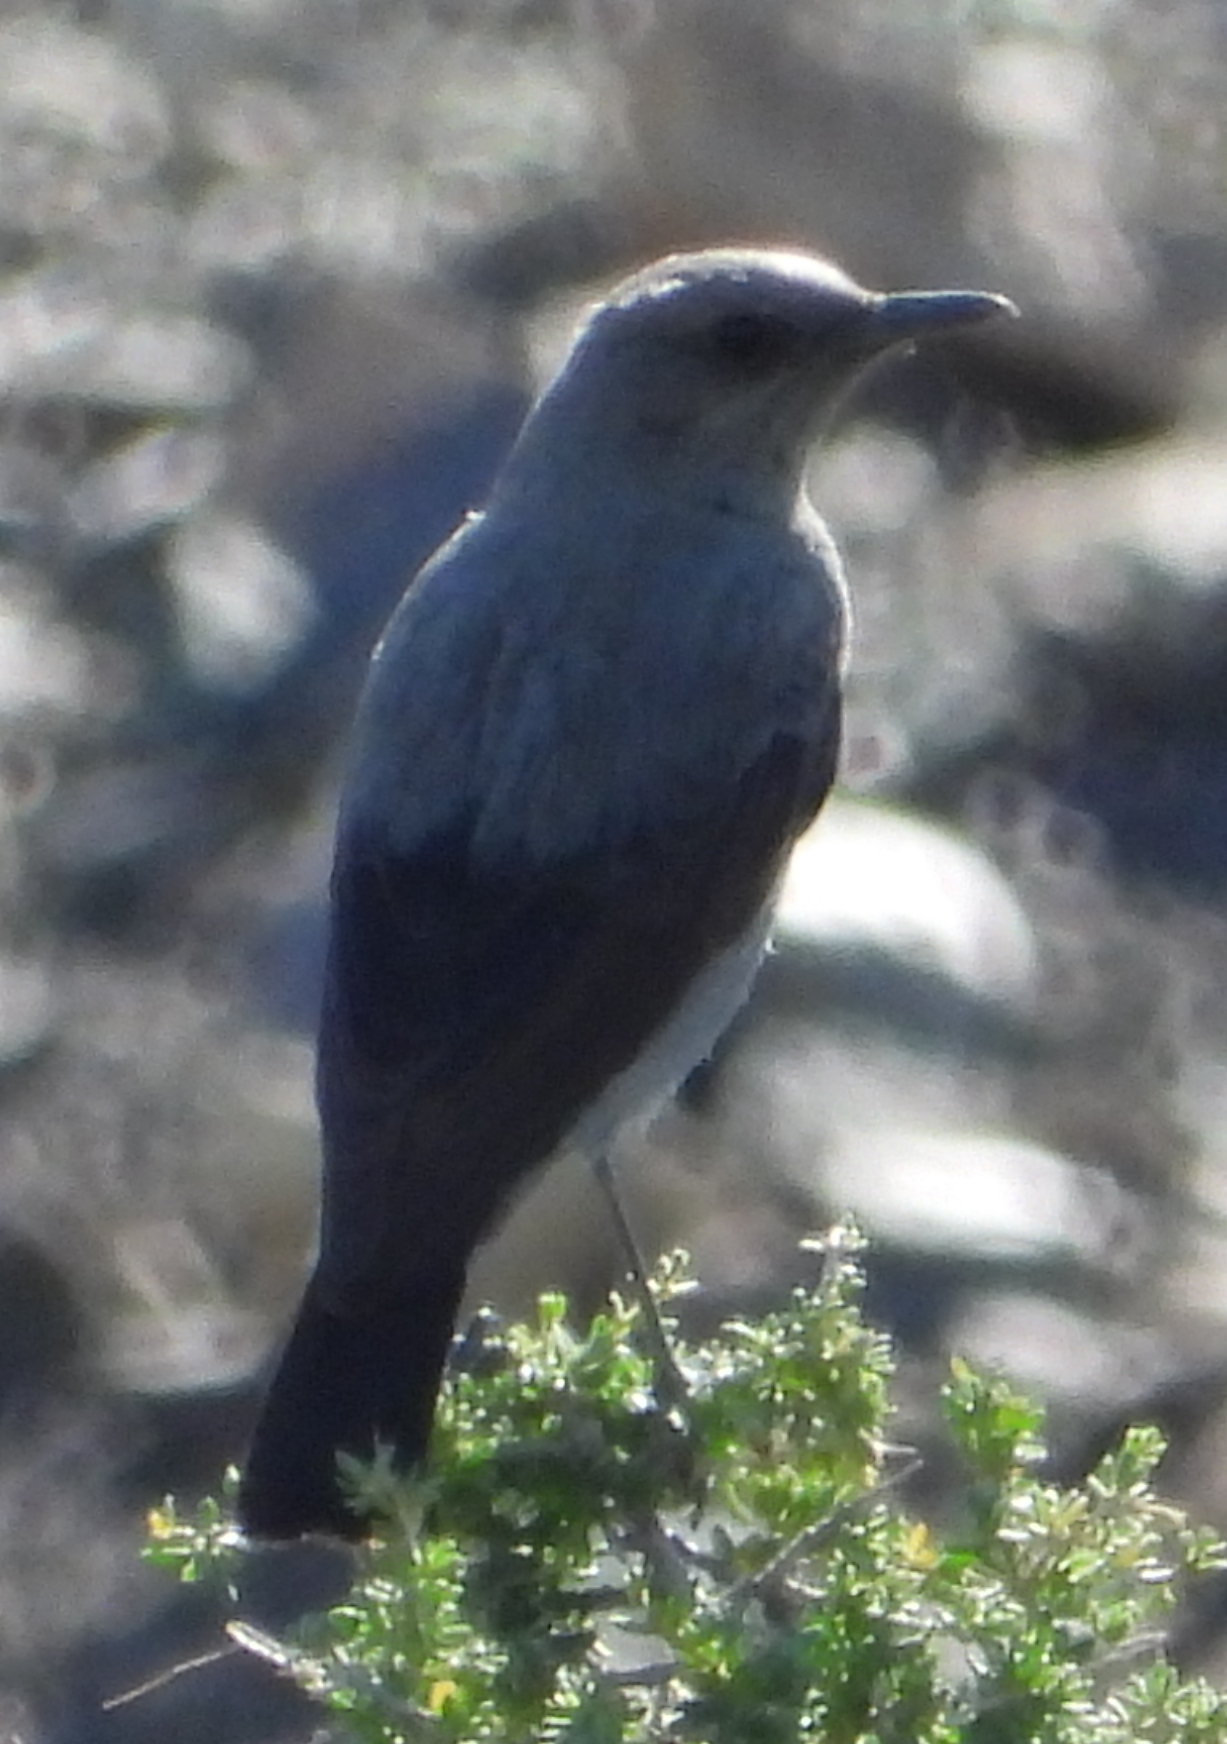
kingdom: Animalia
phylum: Chordata
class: Aves
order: Passeriformes
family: Muscicapidae
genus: Oenanthe
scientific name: Oenanthe monticola
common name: Mountain wheatear
